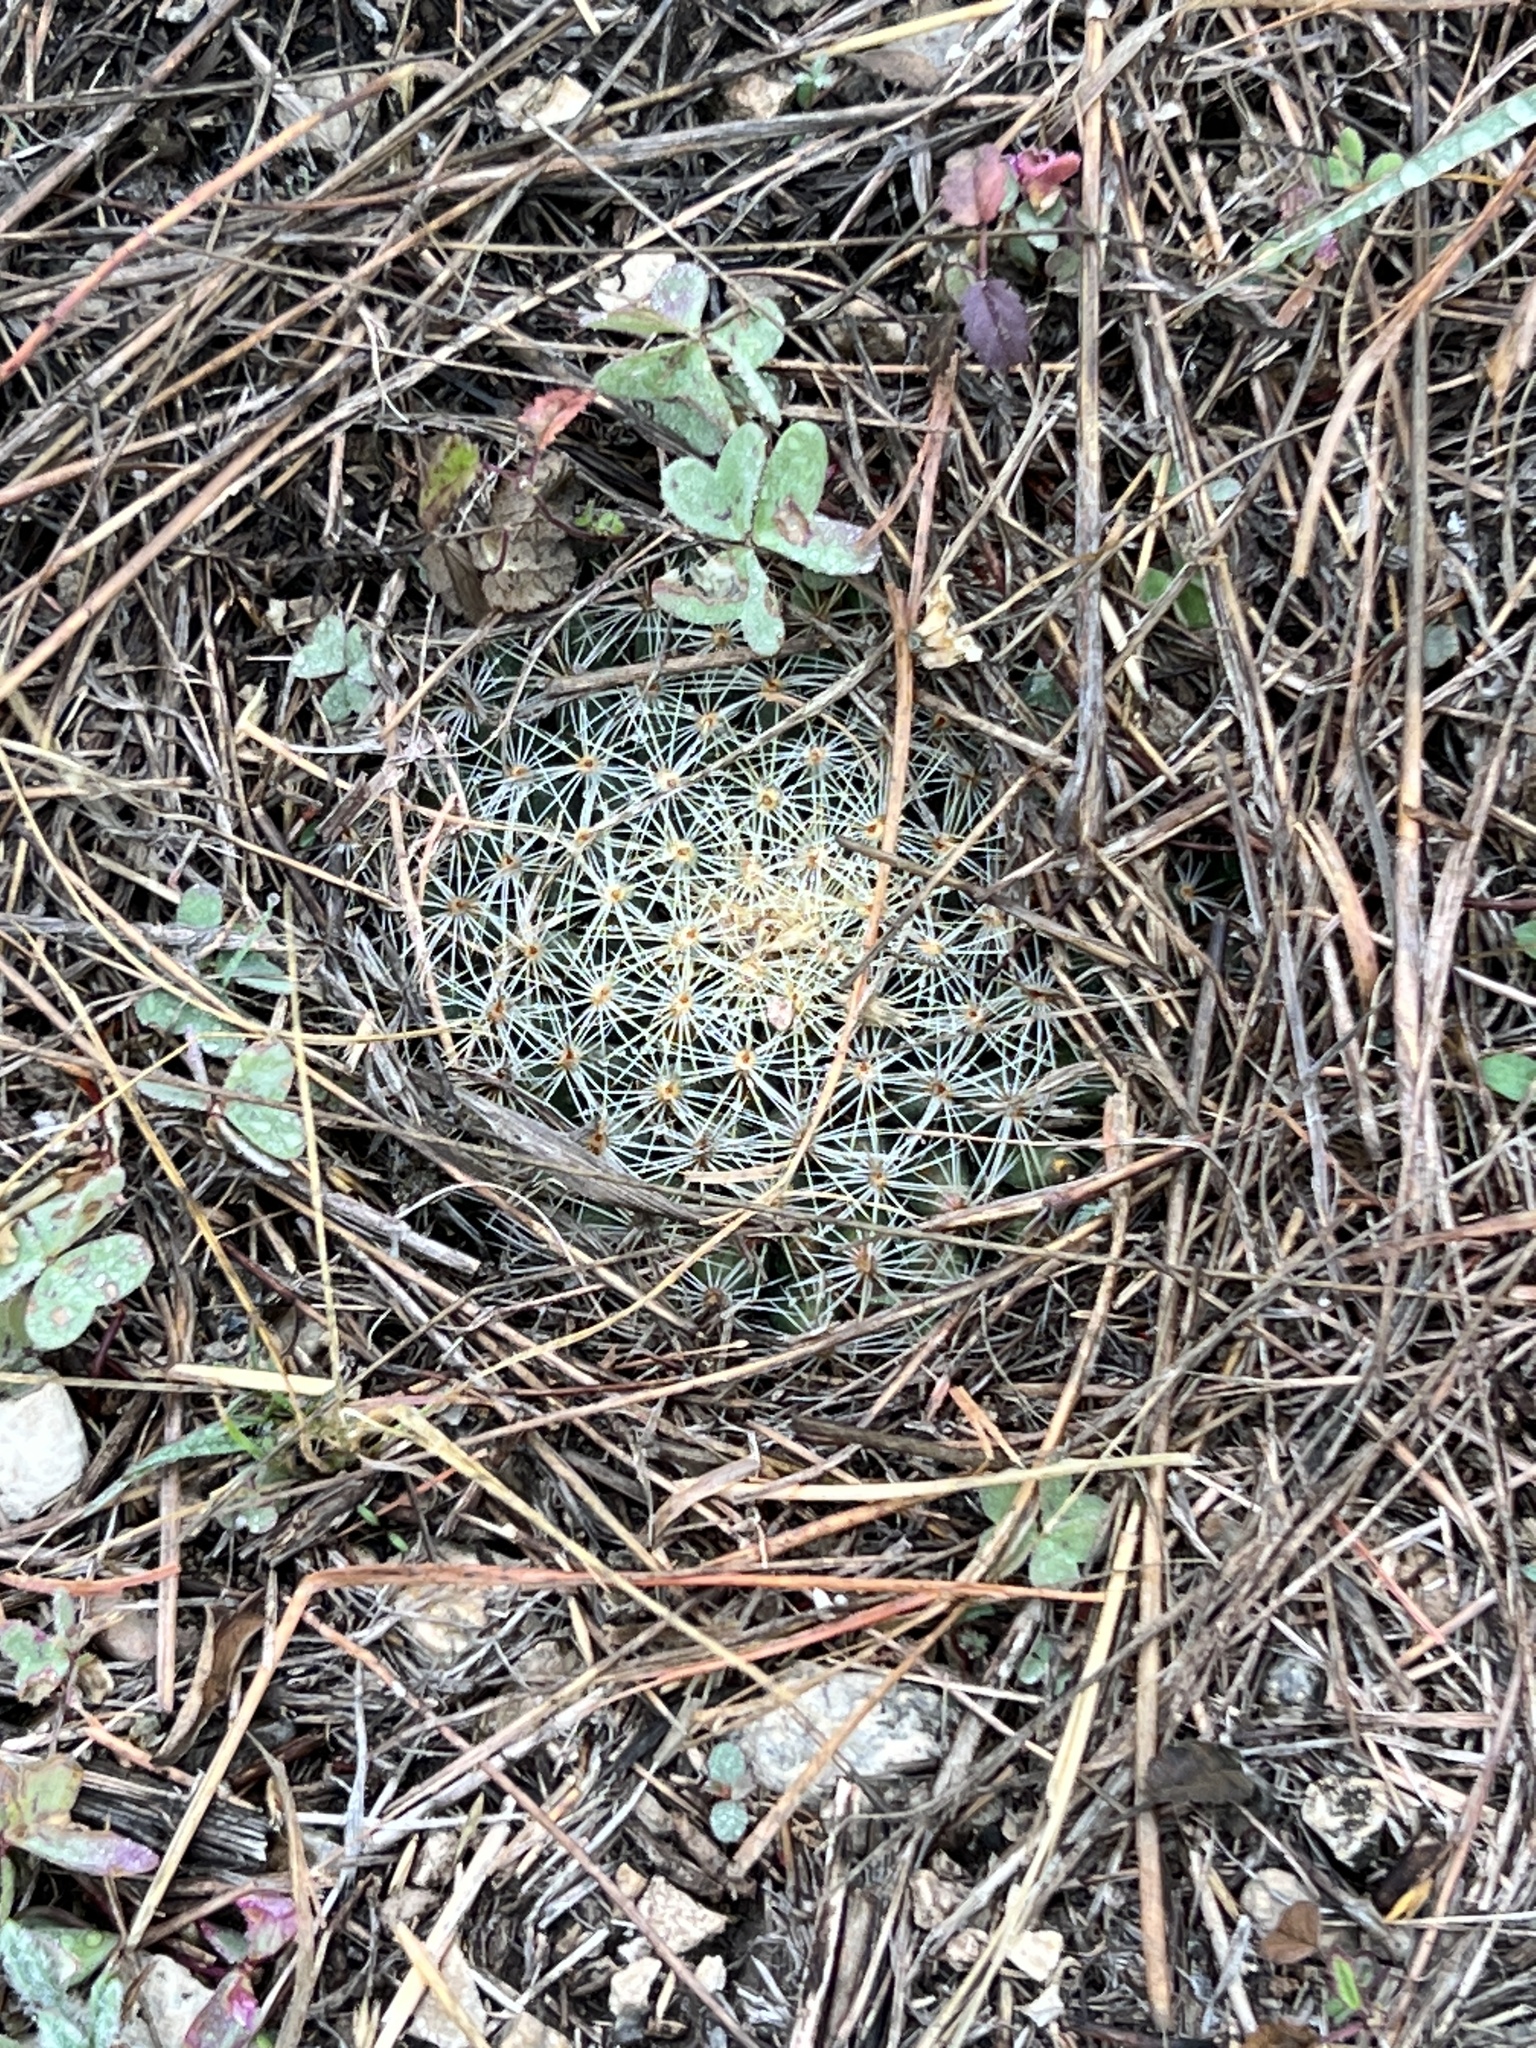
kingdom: Plantae
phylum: Tracheophyta
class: Magnoliopsida
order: Caryophyllales
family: Cactaceae
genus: Mammillaria
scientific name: Mammillaria heyderi
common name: Little nipple cactus
